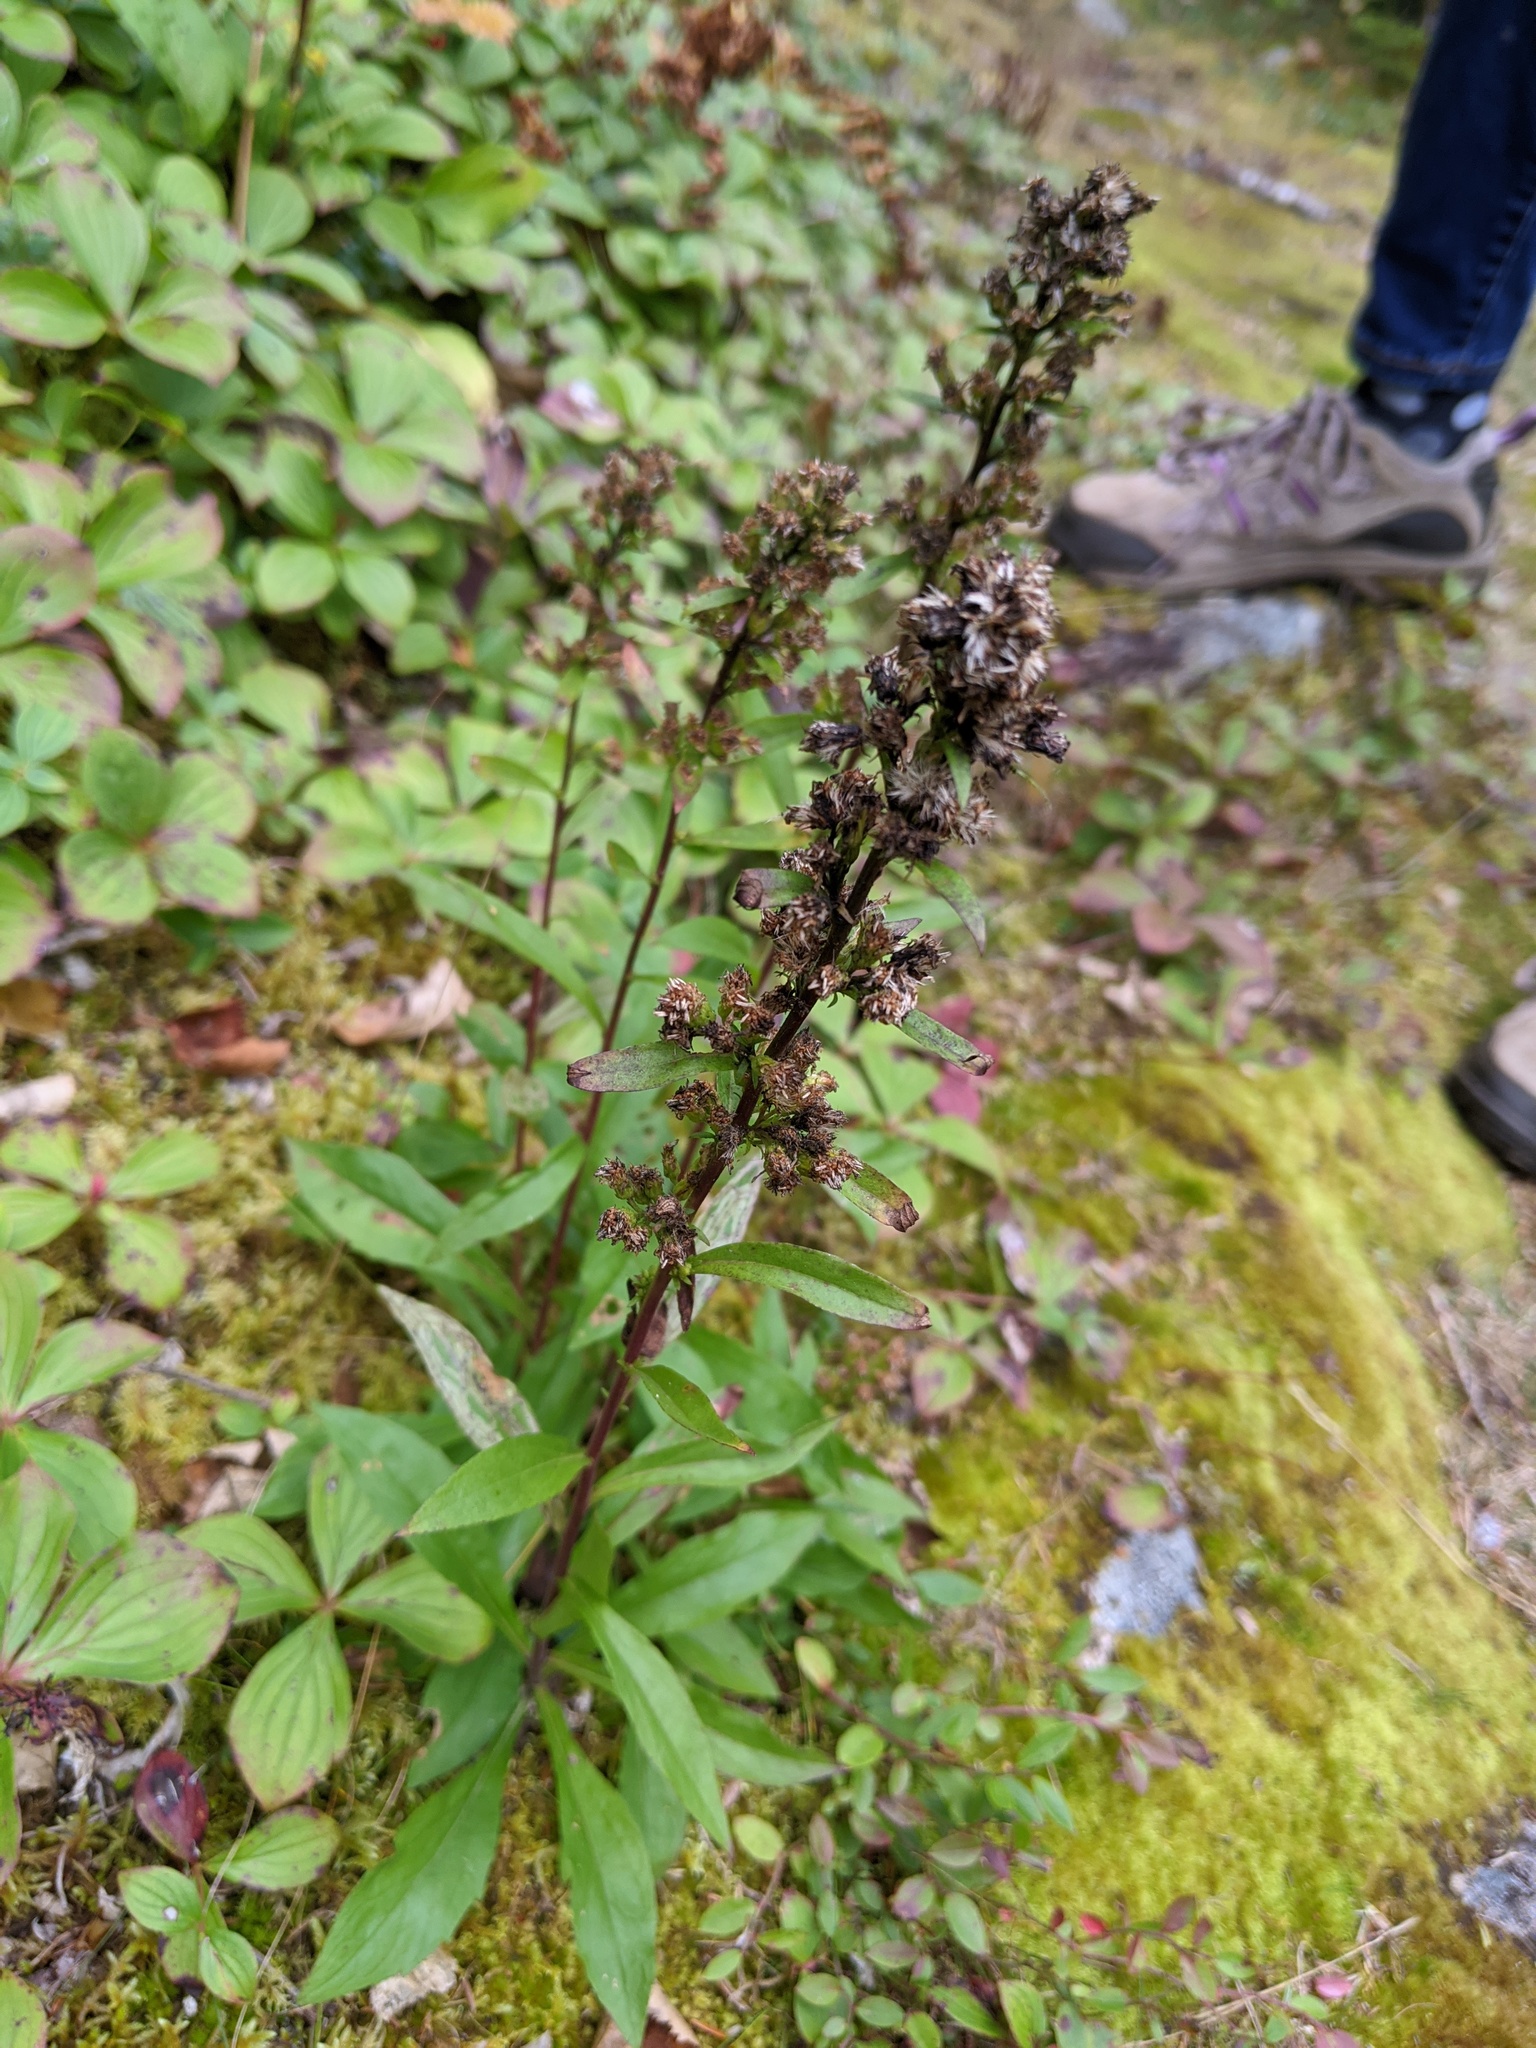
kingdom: Plantae
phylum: Tracheophyta
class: Magnoliopsida
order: Asterales
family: Asteraceae
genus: Solidago
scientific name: Solidago puberula
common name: Downy goldenrod
